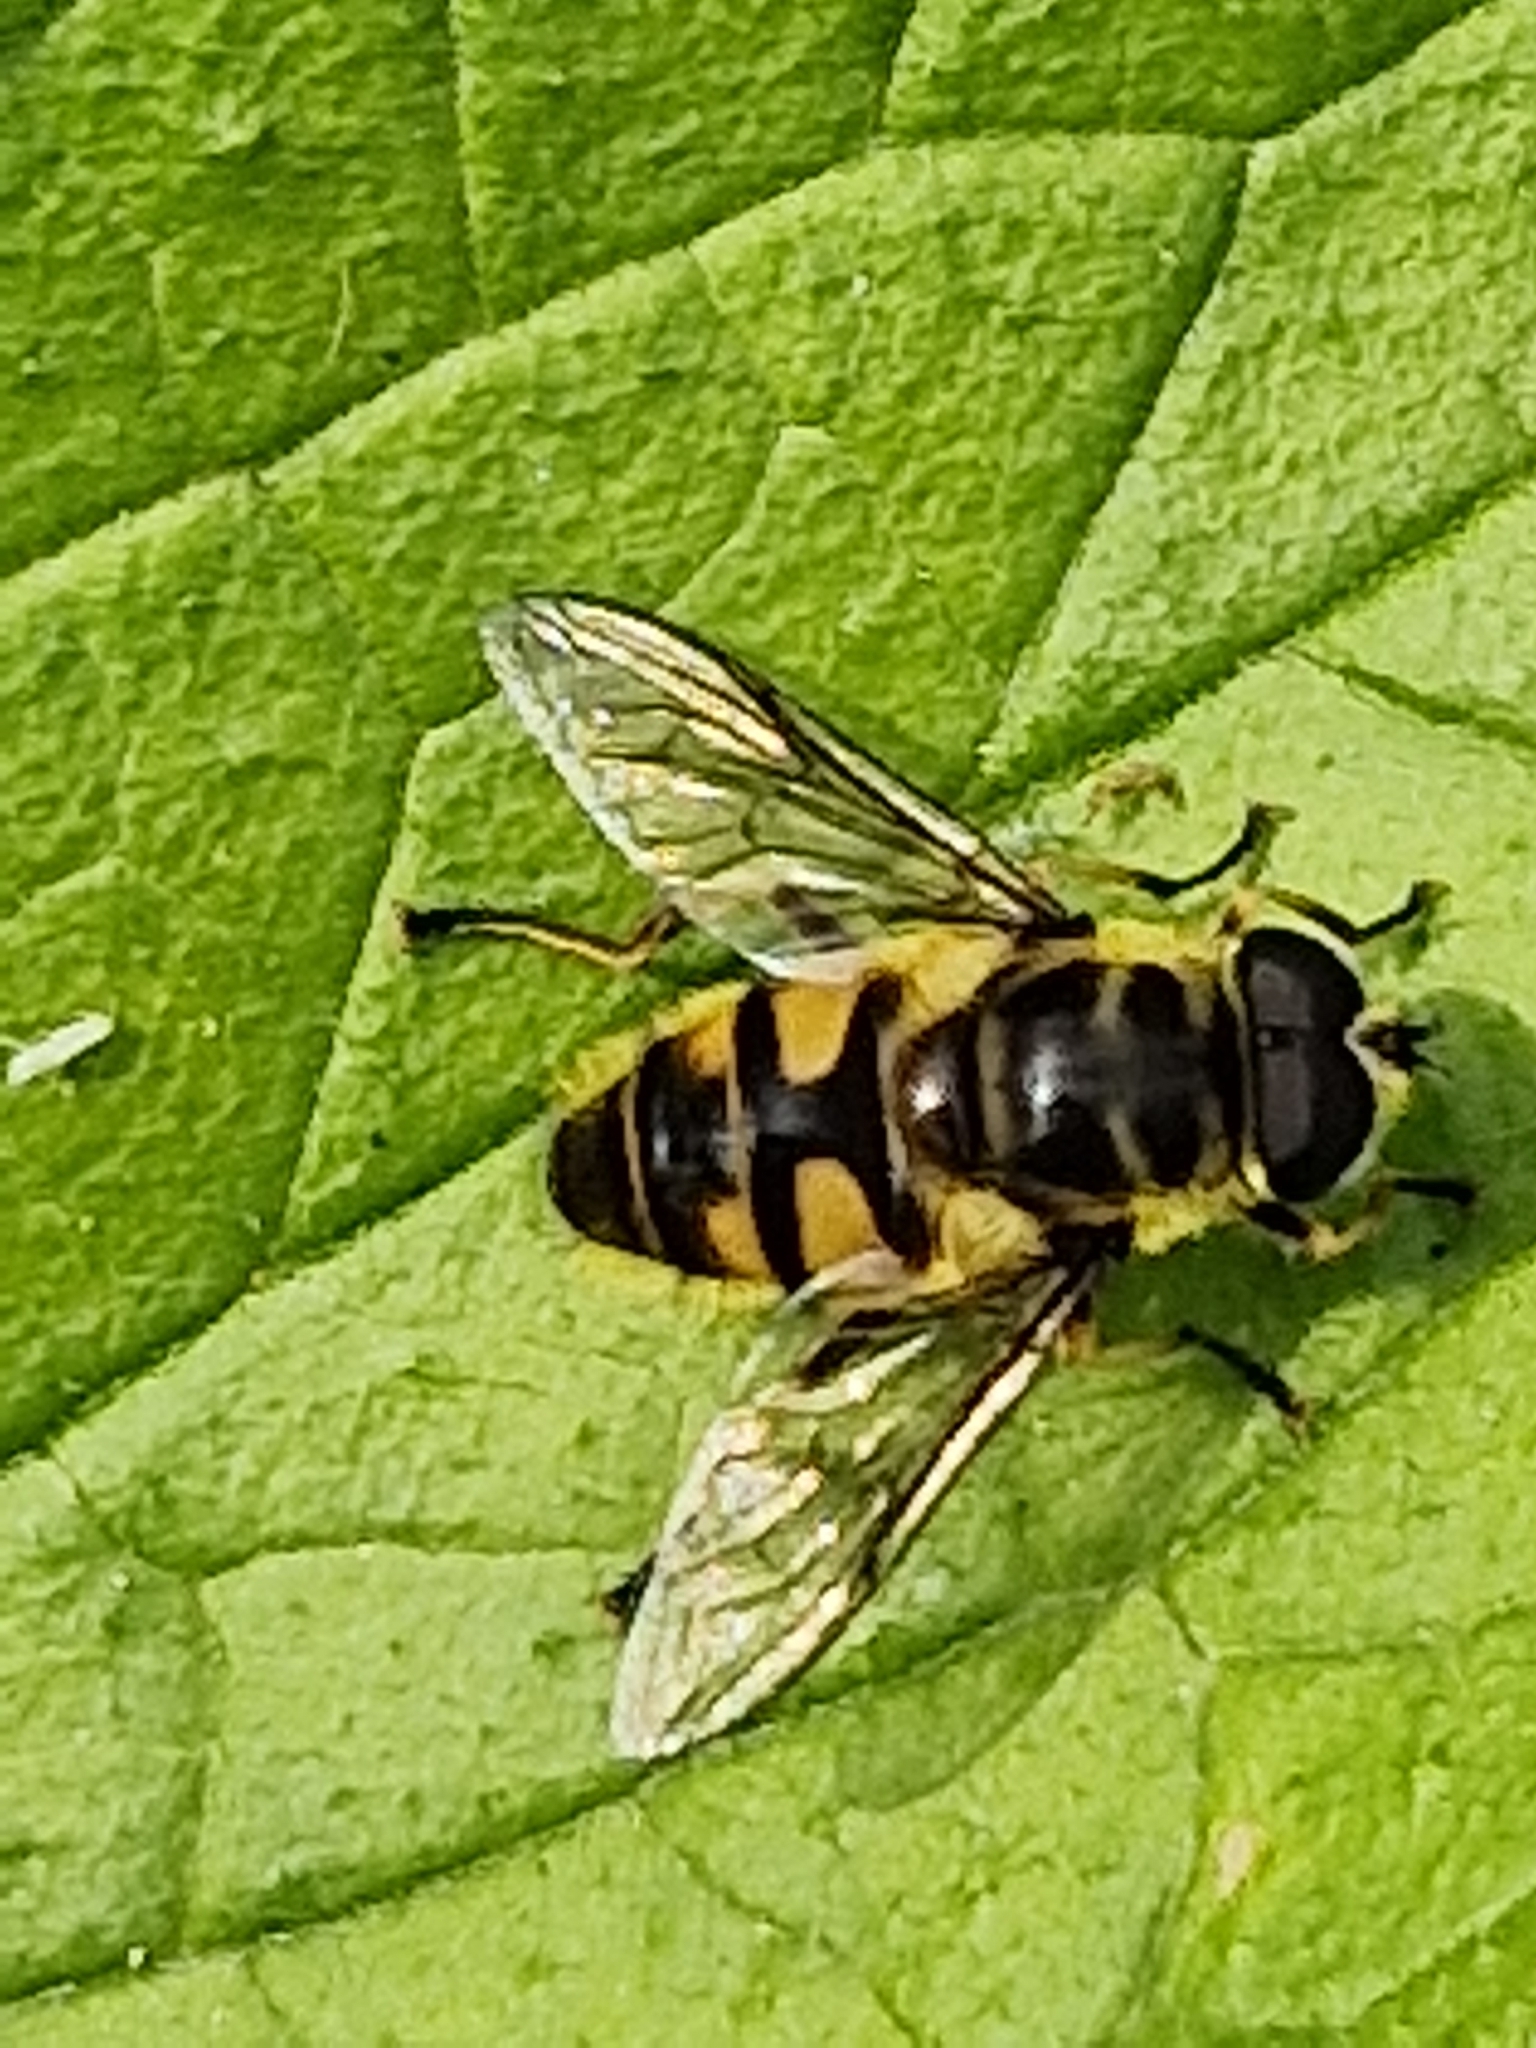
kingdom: Animalia
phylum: Arthropoda
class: Insecta
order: Diptera
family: Syrphidae
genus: Myathropa
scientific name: Myathropa florea
